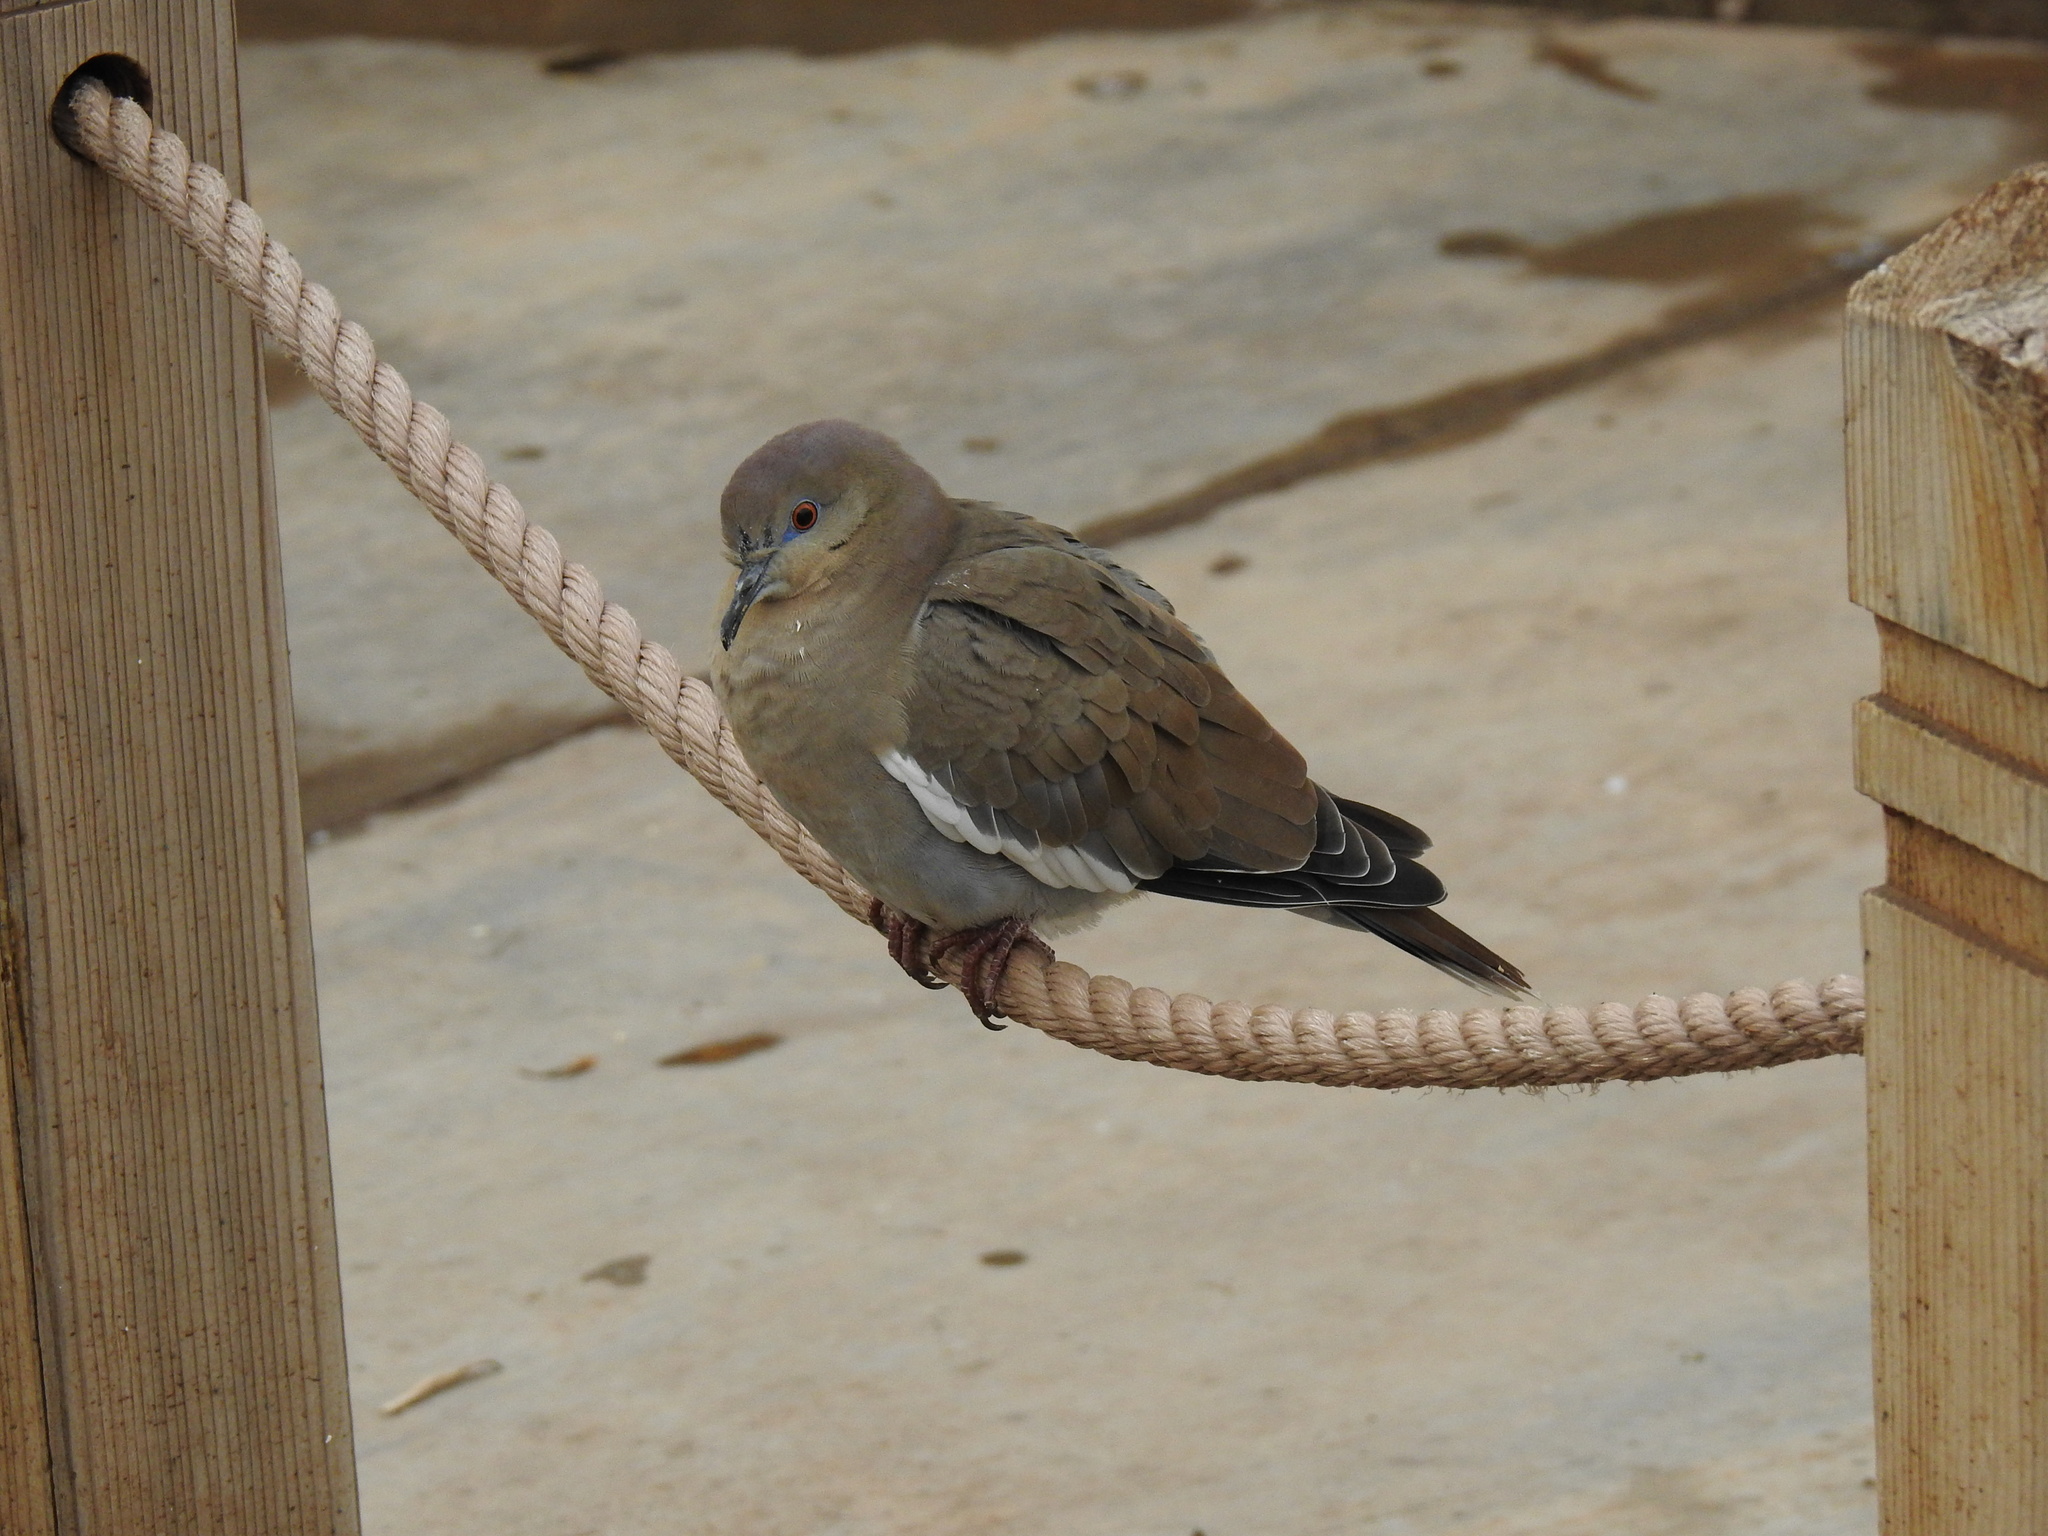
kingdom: Animalia
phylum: Chordata
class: Aves
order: Columbiformes
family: Columbidae
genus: Zenaida
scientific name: Zenaida asiatica
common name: White-winged dove
